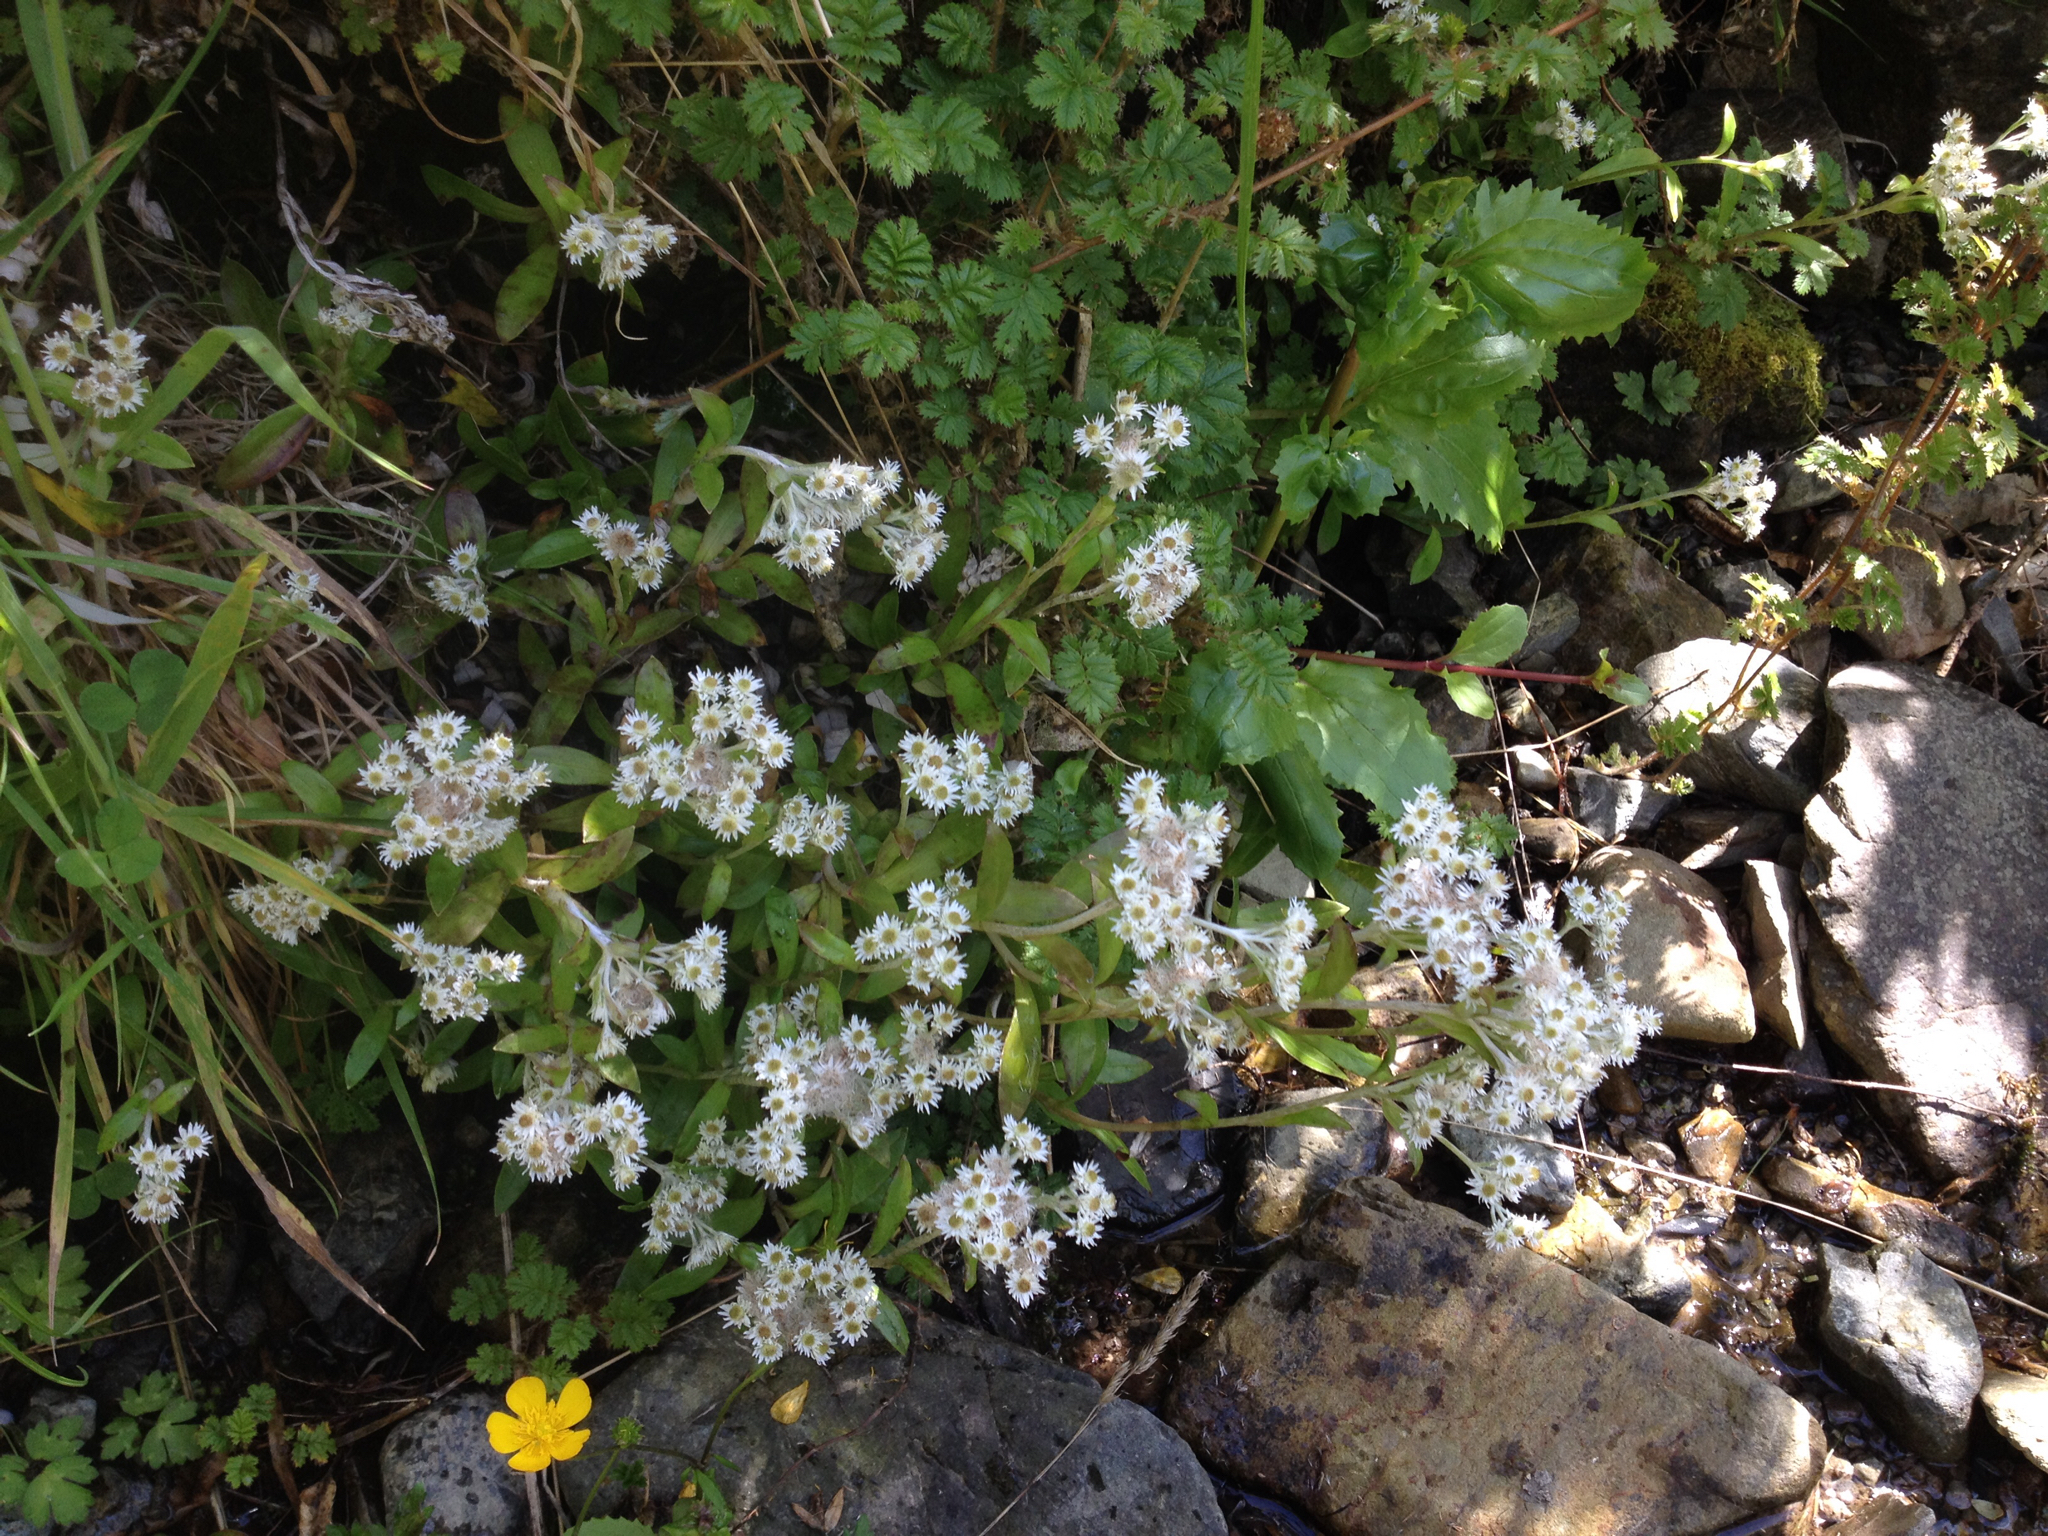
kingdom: Plantae
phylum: Tracheophyta
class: Magnoliopsida
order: Asterales
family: Asteraceae
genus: Anaphalioides
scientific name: Anaphalioides trinervis
